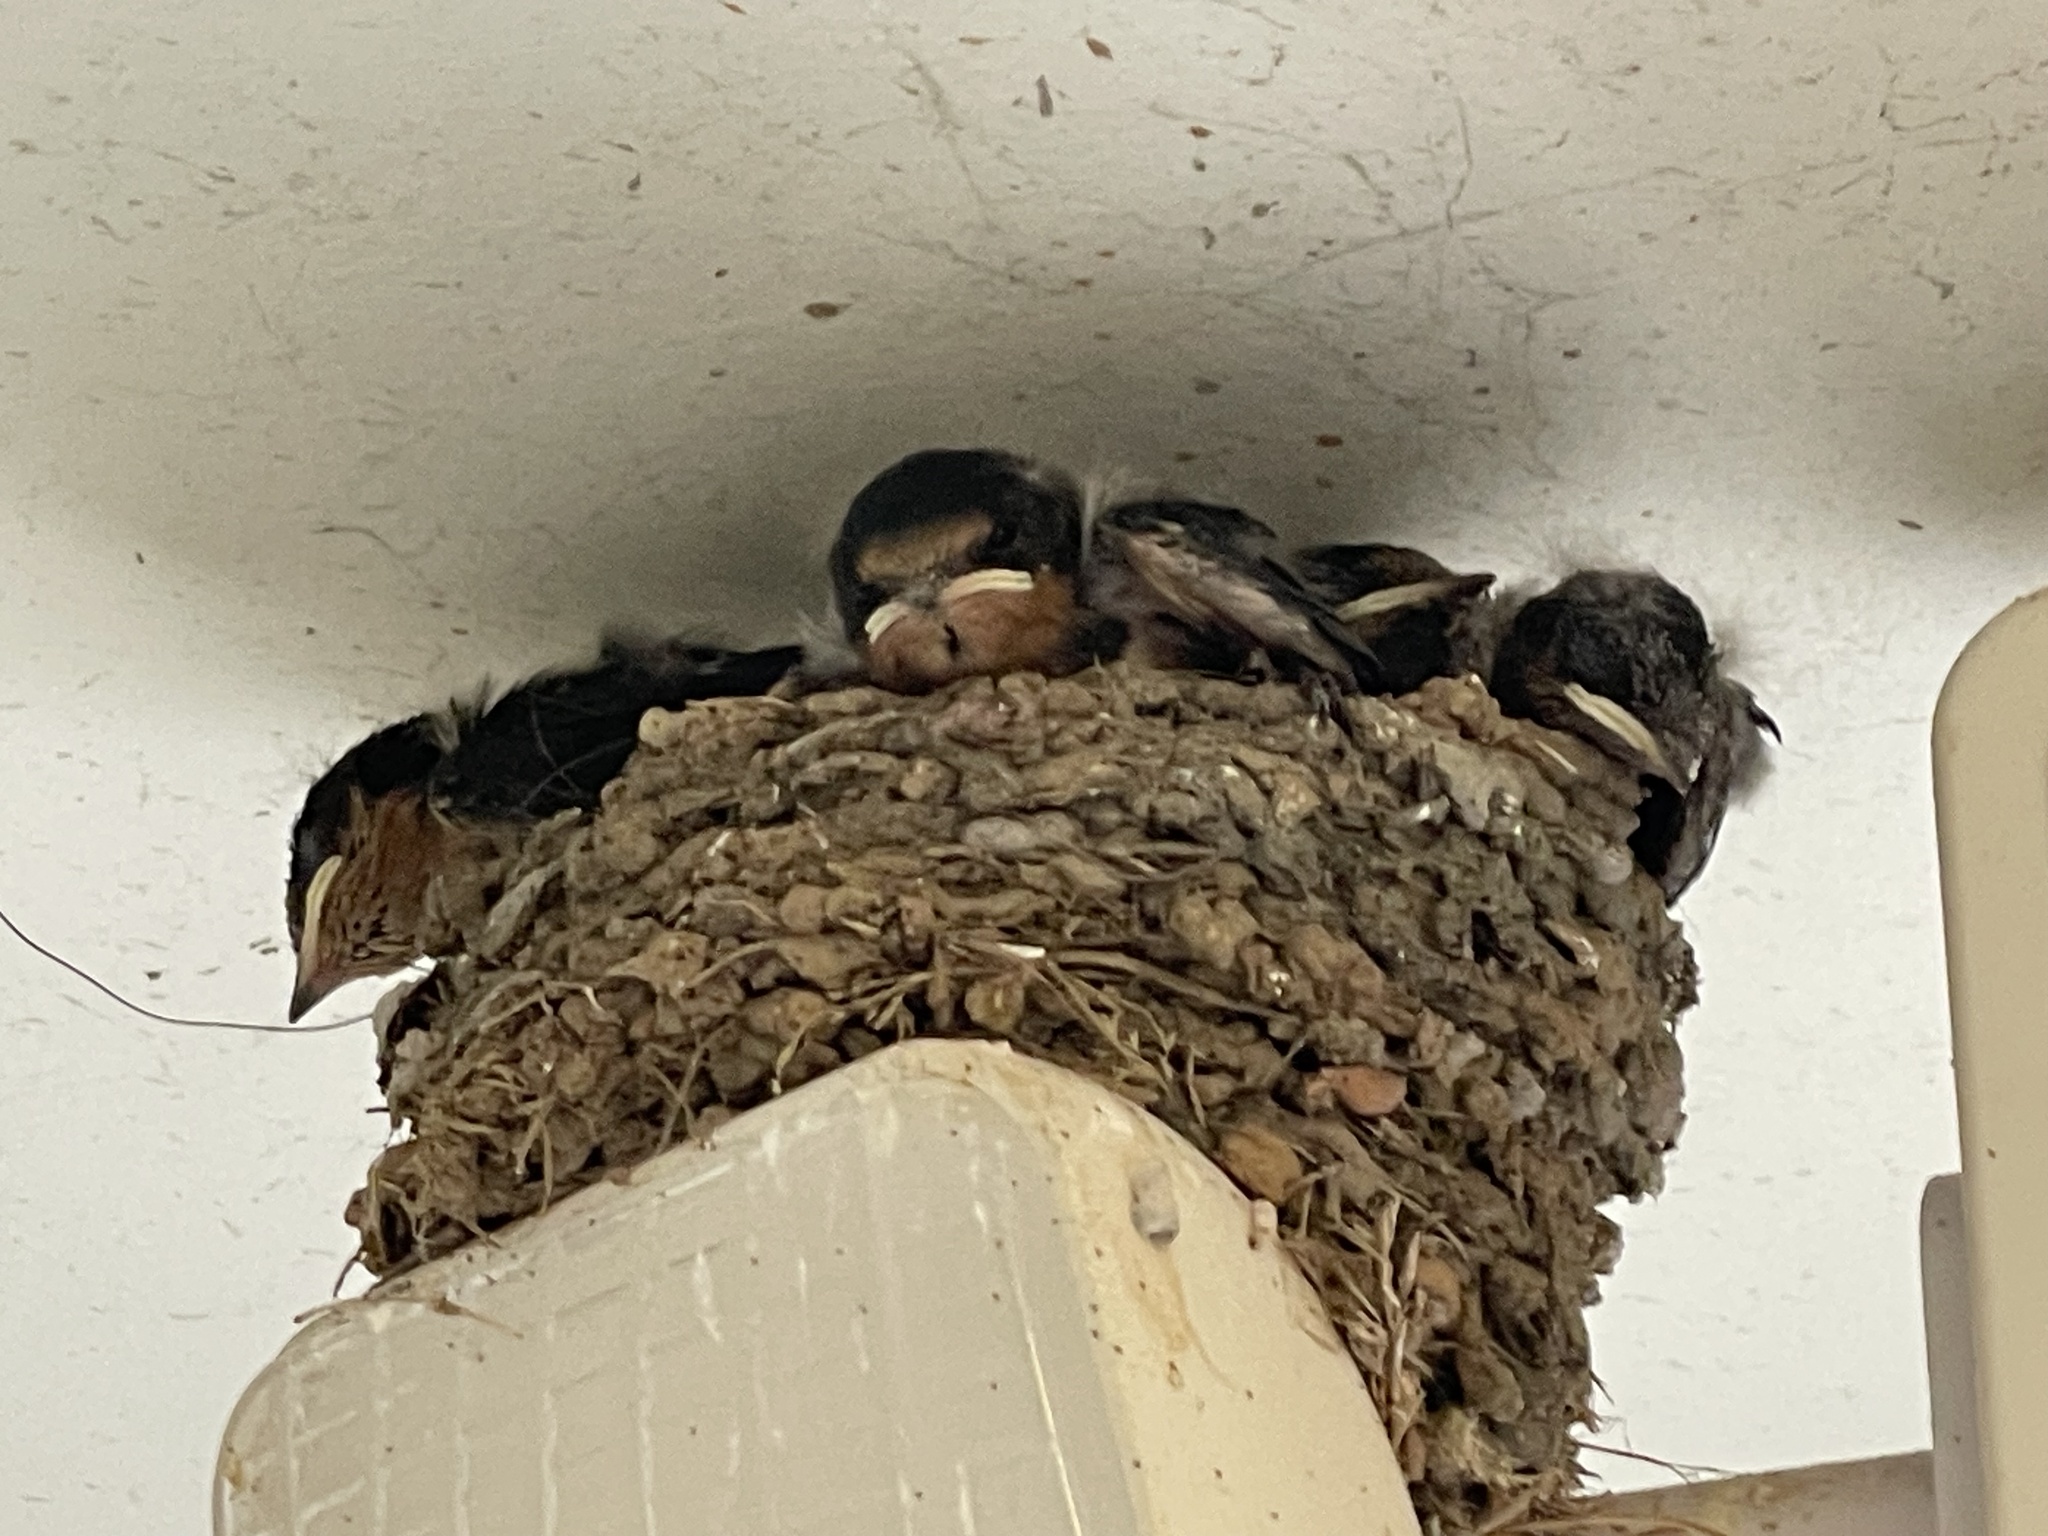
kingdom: Animalia
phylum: Chordata
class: Aves
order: Passeriformes
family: Hirundinidae
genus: Hirundo
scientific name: Hirundo rustica
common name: Barn swallow
